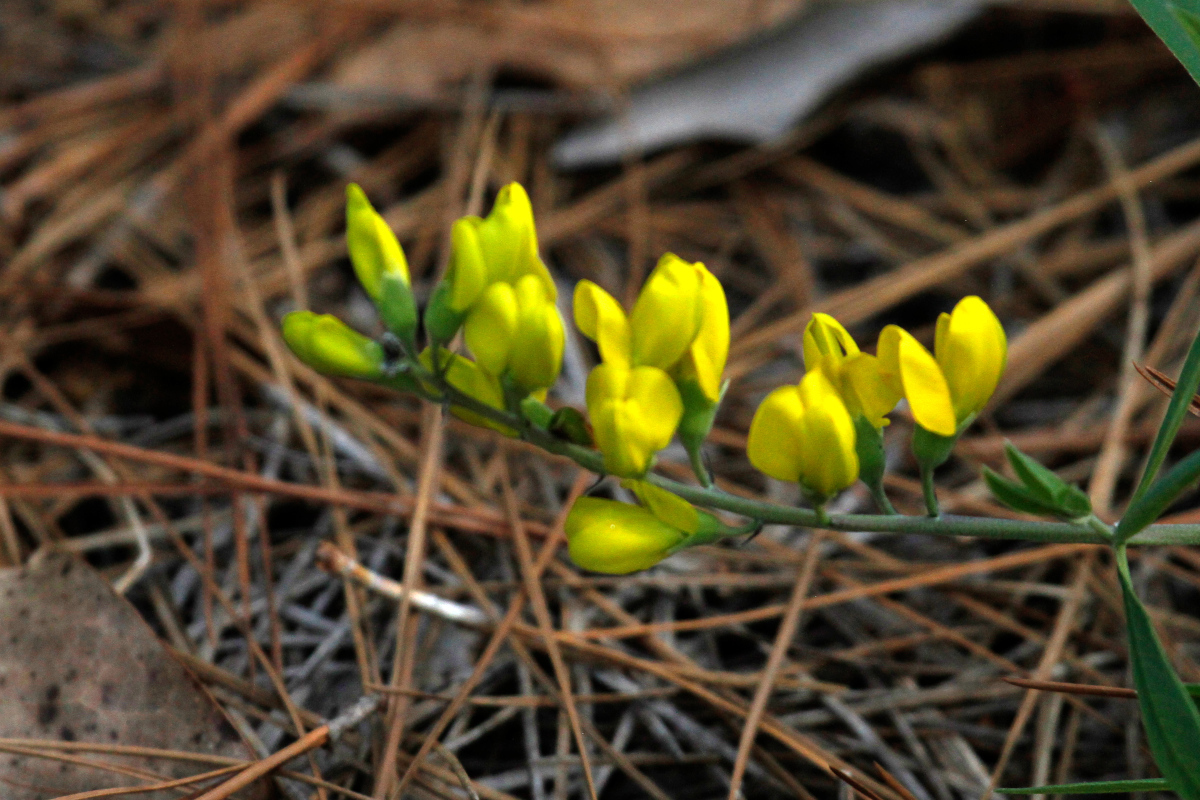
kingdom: Plantae
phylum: Tracheophyta
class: Magnoliopsida
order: Fabales
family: Fabaceae
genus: Baptisia
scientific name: Baptisia tinctoria
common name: Wild indigo
